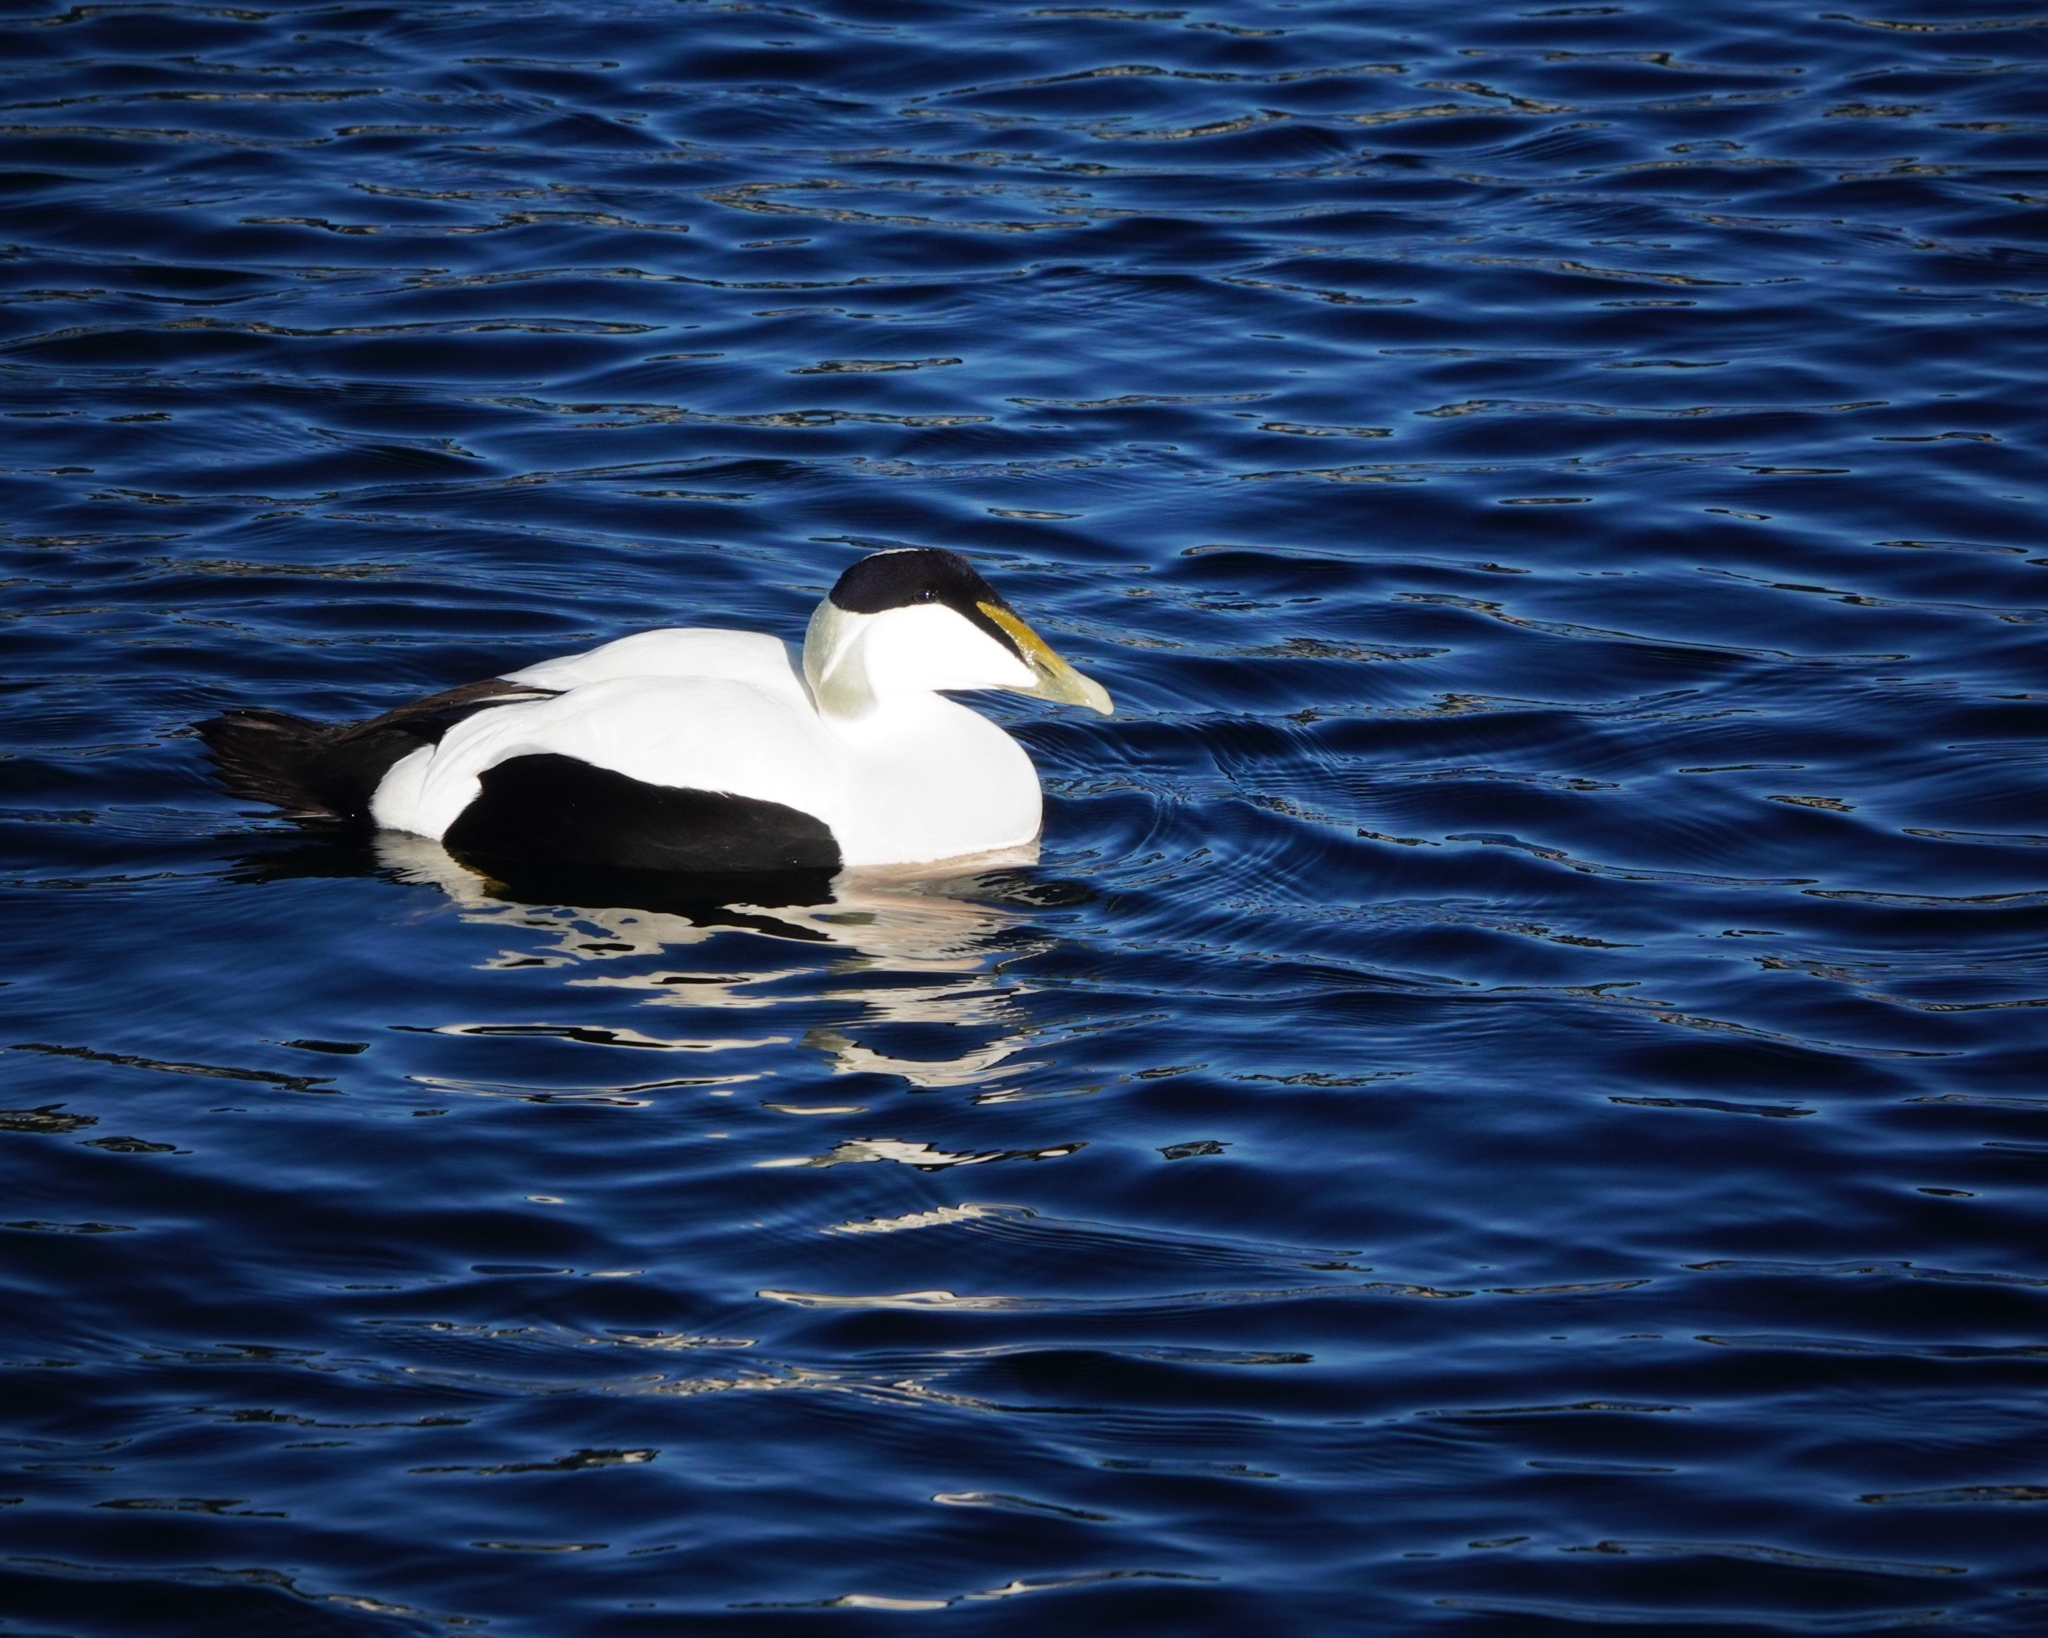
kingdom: Animalia
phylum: Chordata
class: Aves
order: Anseriformes
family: Anatidae
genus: Somateria
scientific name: Somateria mollissima
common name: Common eider
